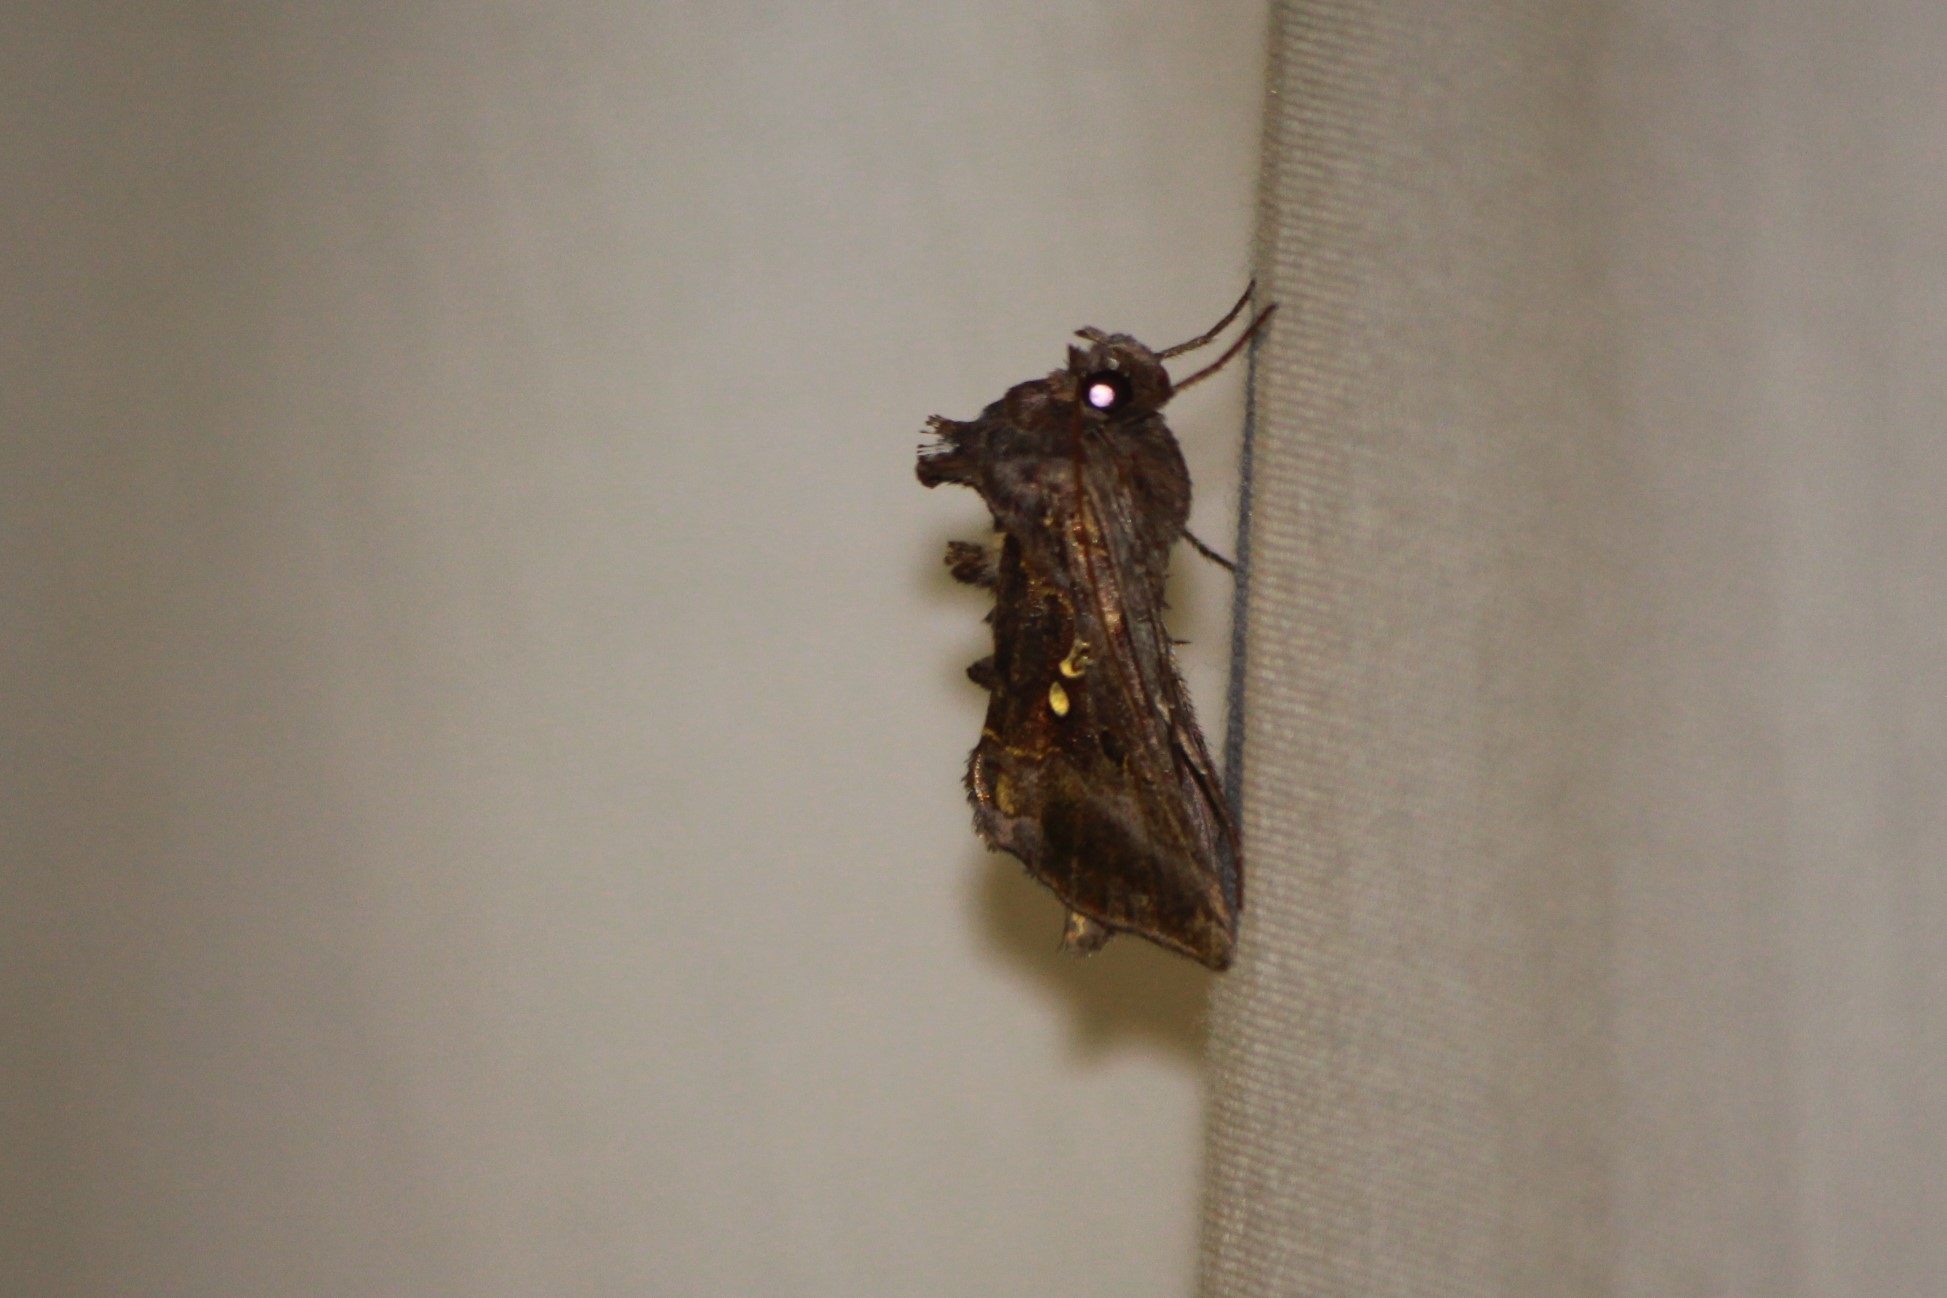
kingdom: Animalia
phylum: Arthropoda
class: Insecta
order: Lepidoptera
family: Noctuidae
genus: Autographa
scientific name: Autographa precationis
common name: Common looper moth
